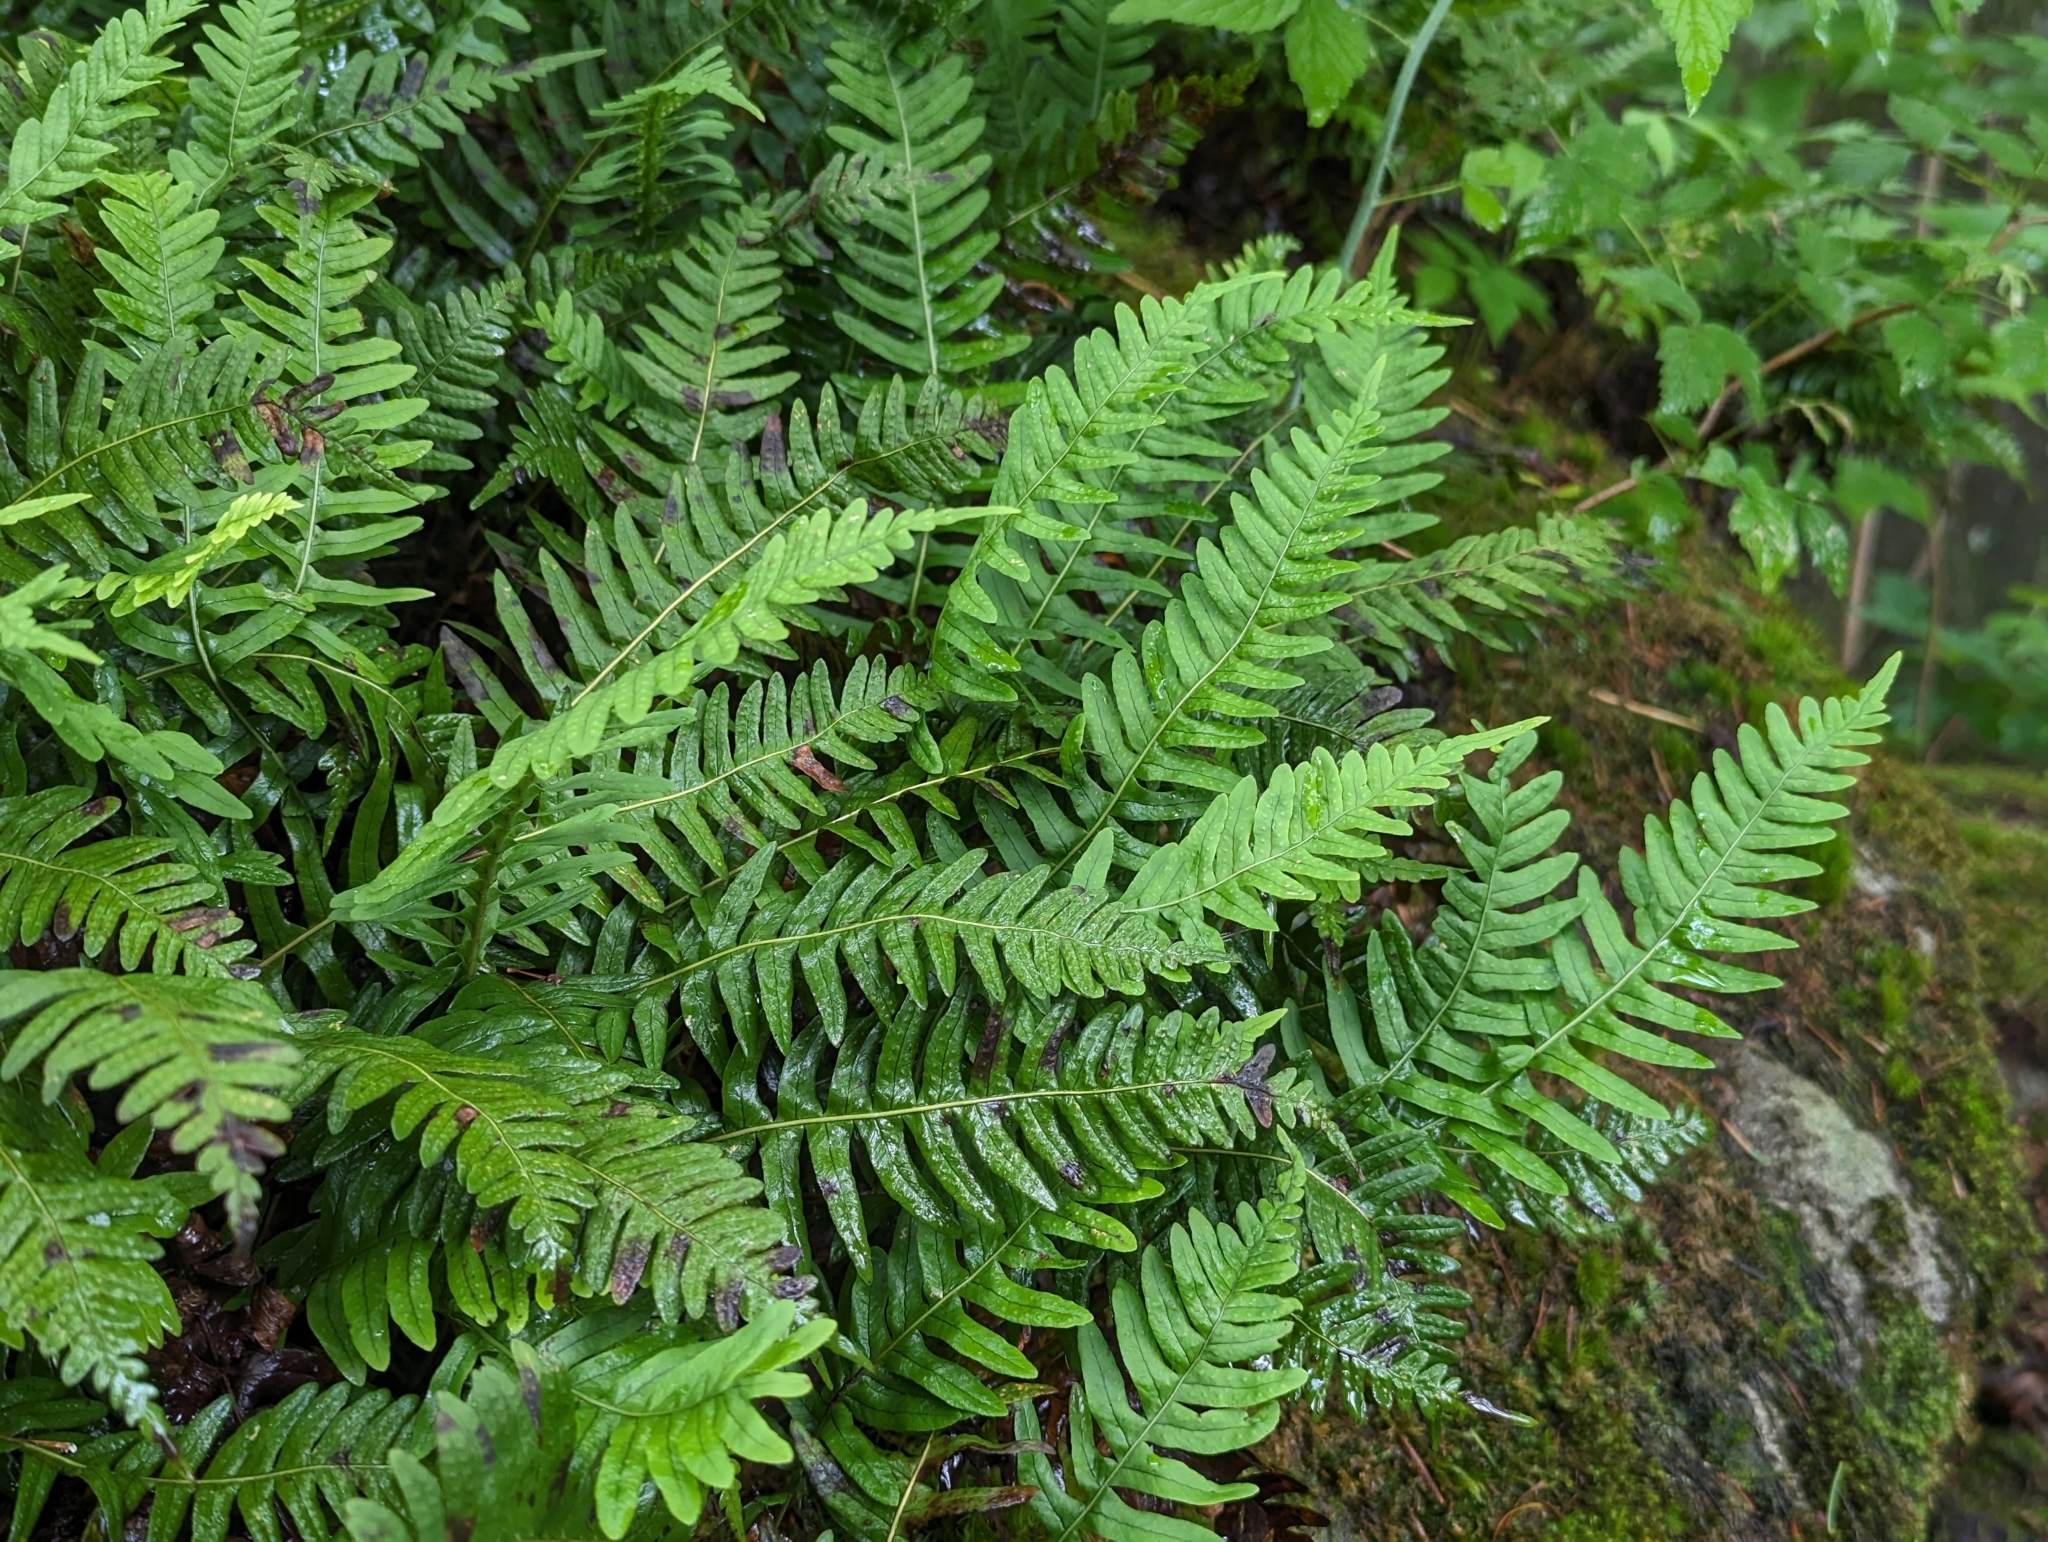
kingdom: Plantae
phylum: Tracheophyta
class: Polypodiopsida
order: Polypodiales
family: Polypodiaceae
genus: Polypodium
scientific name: Polypodium virginianum
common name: American wall fern
